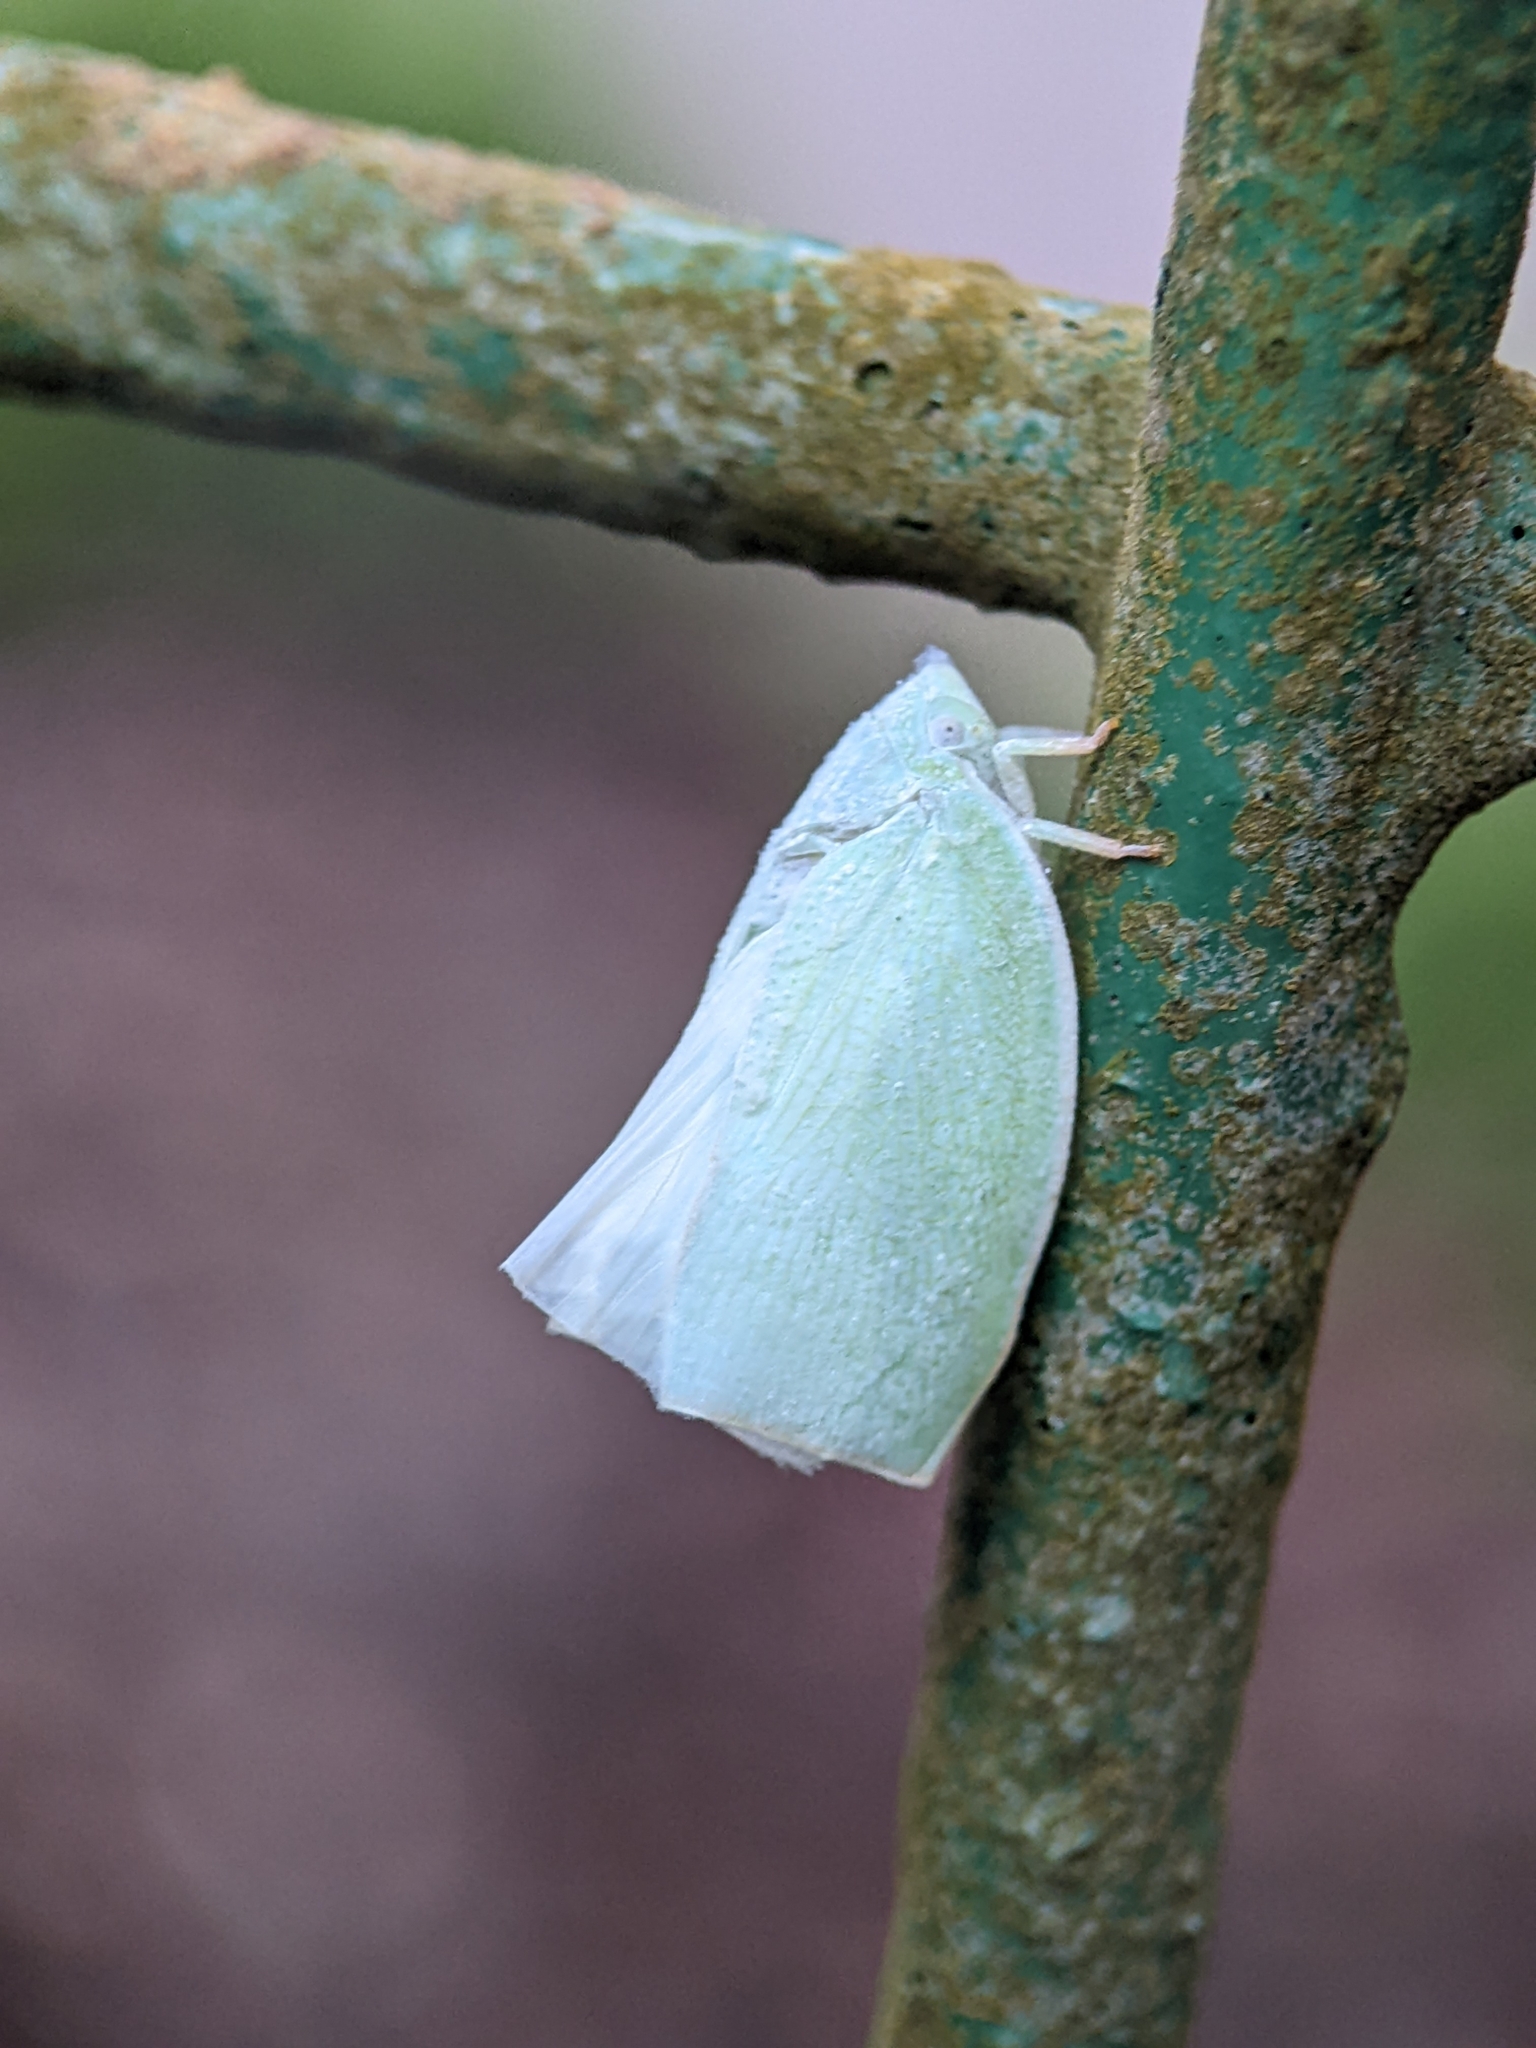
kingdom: Animalia
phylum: Arthropoda
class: Insecta
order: Hemiptera
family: Flatidae
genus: Anaya
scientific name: Anaya luteimargo
